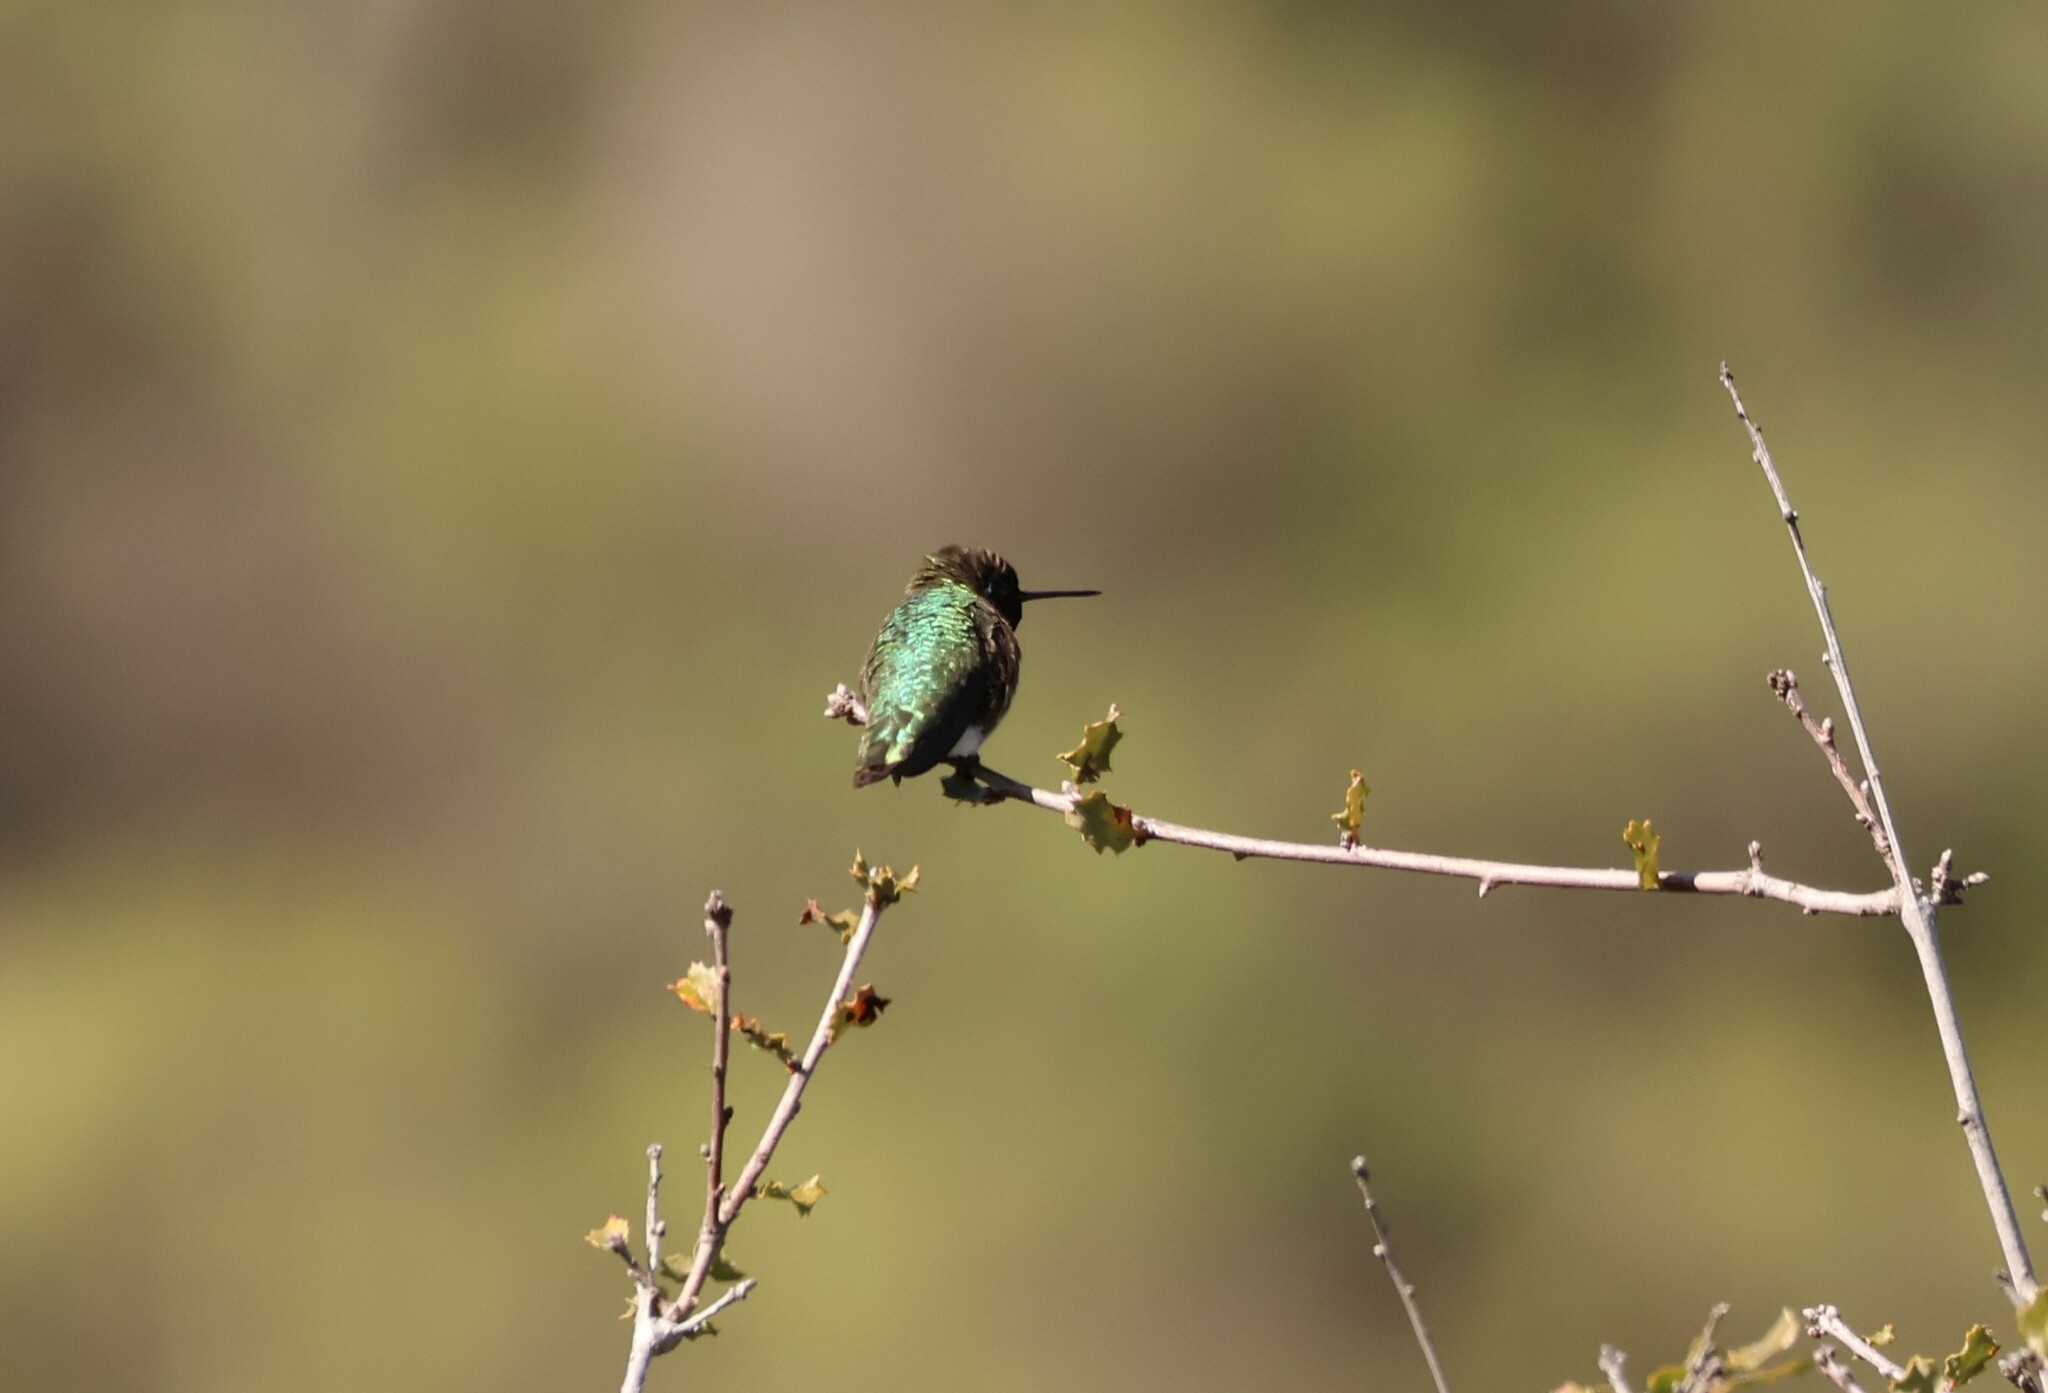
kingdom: Animalia
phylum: Chordata
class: Aves
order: Apodiformes
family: Trochilidae
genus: Calypte
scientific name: Calypte anna
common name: Anna's hummingbird
